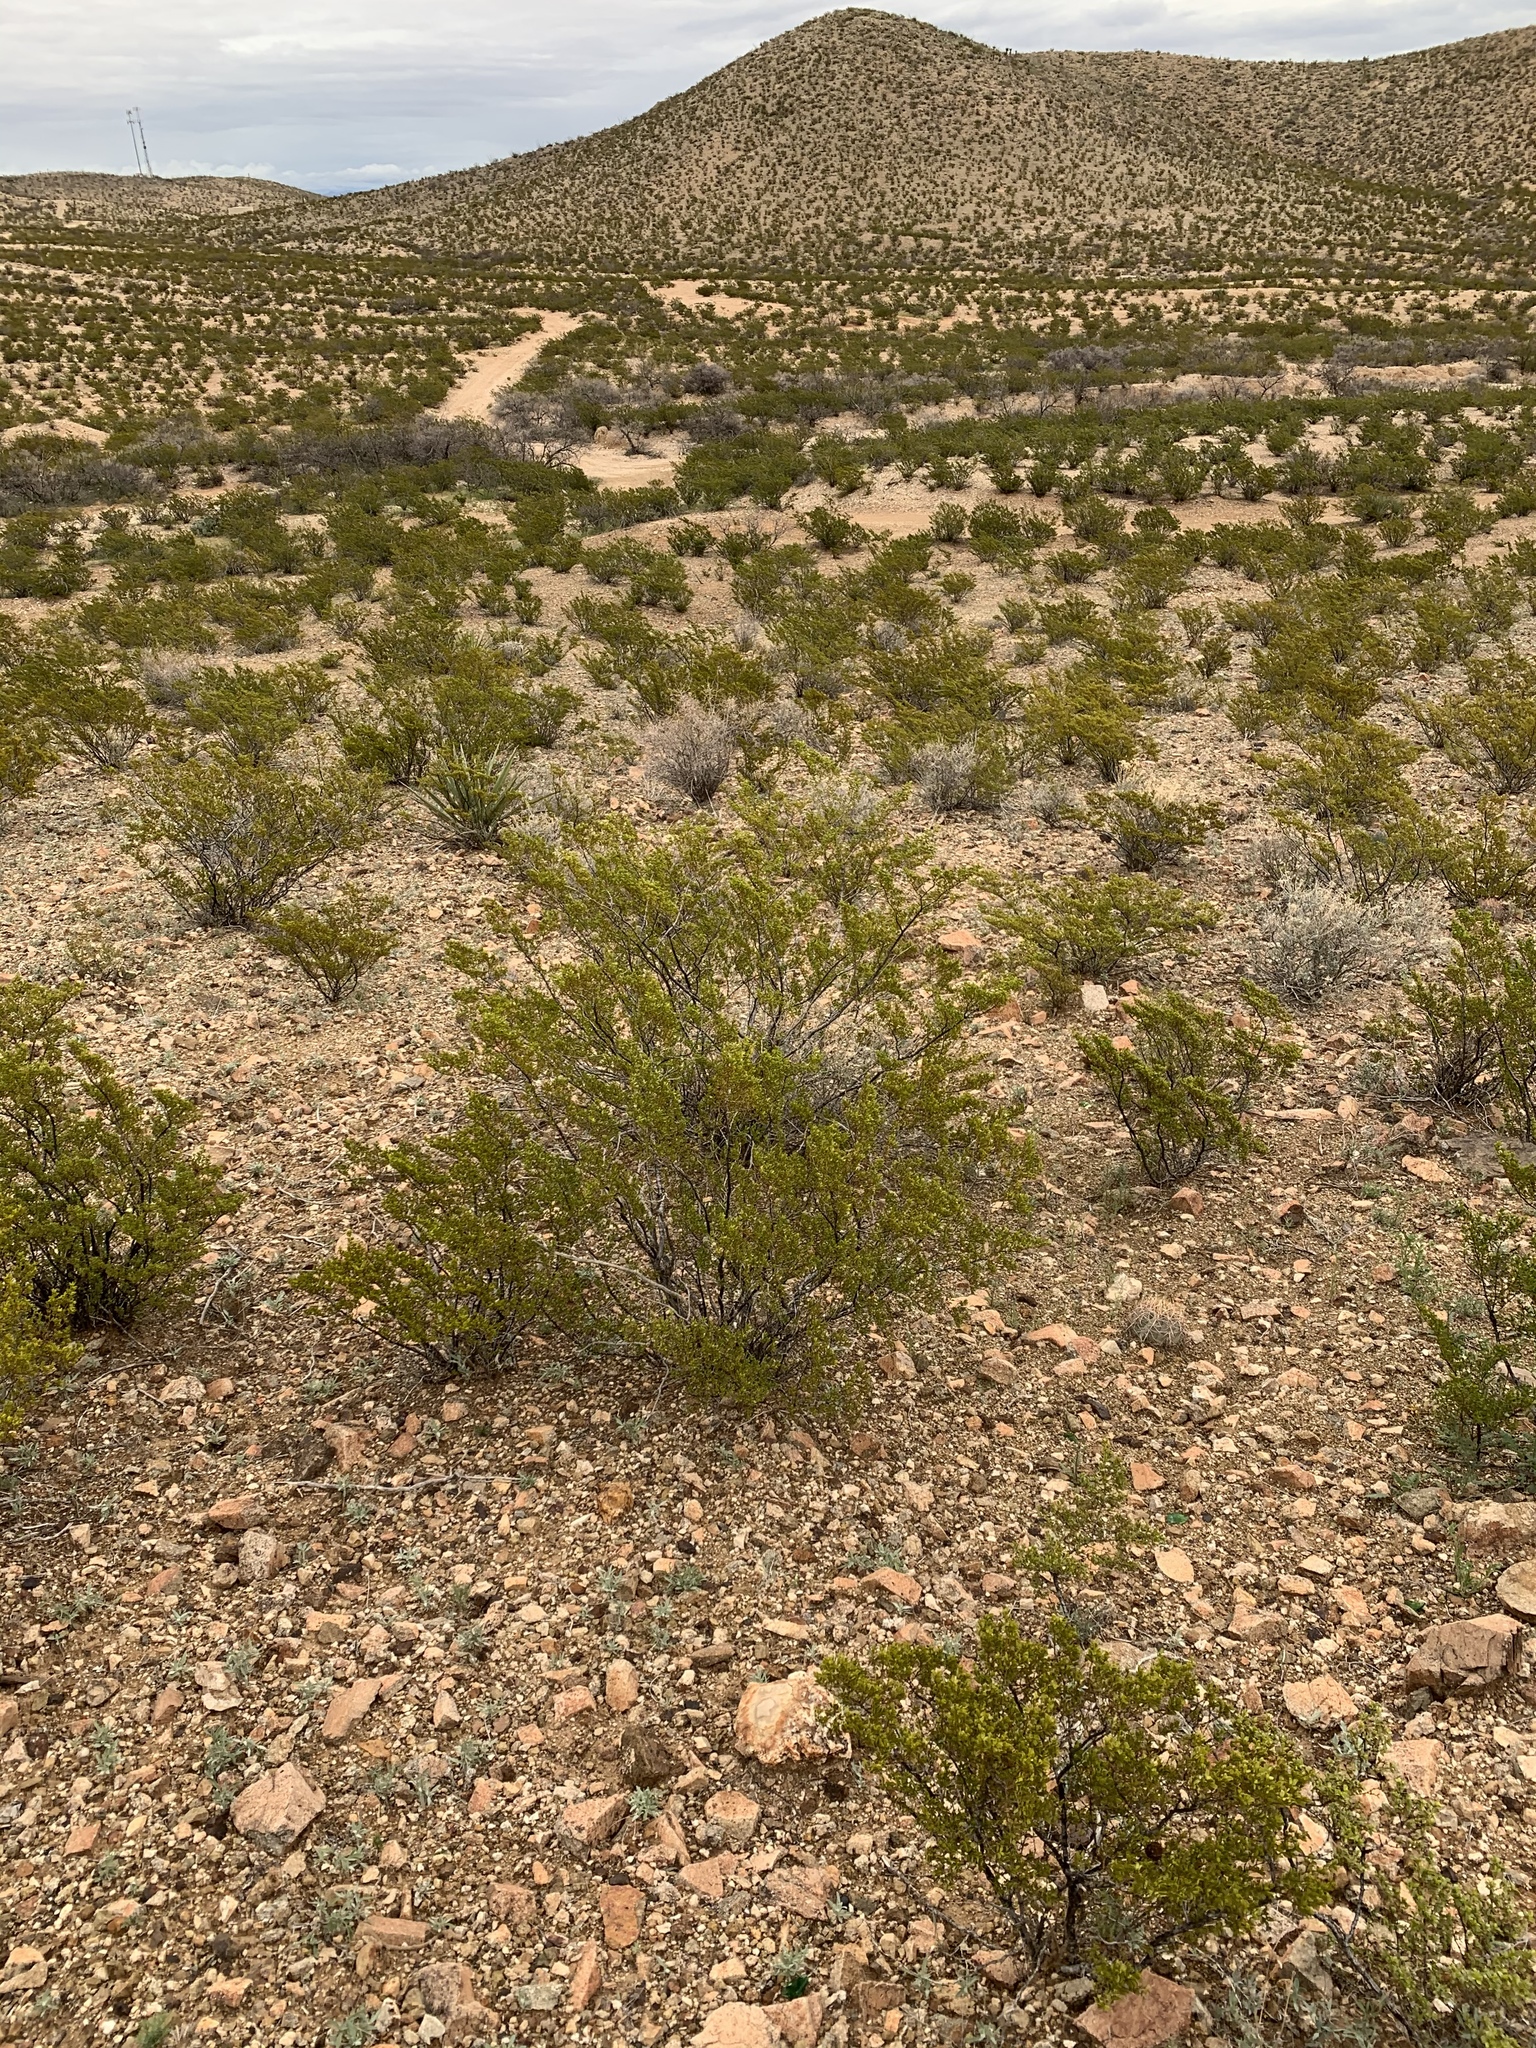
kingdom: Plantae
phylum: Tracheophyta
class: Magnoliopsida
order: Zygophyllales
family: Zygophyllaceae
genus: Larrea
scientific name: Larrea tridentata
